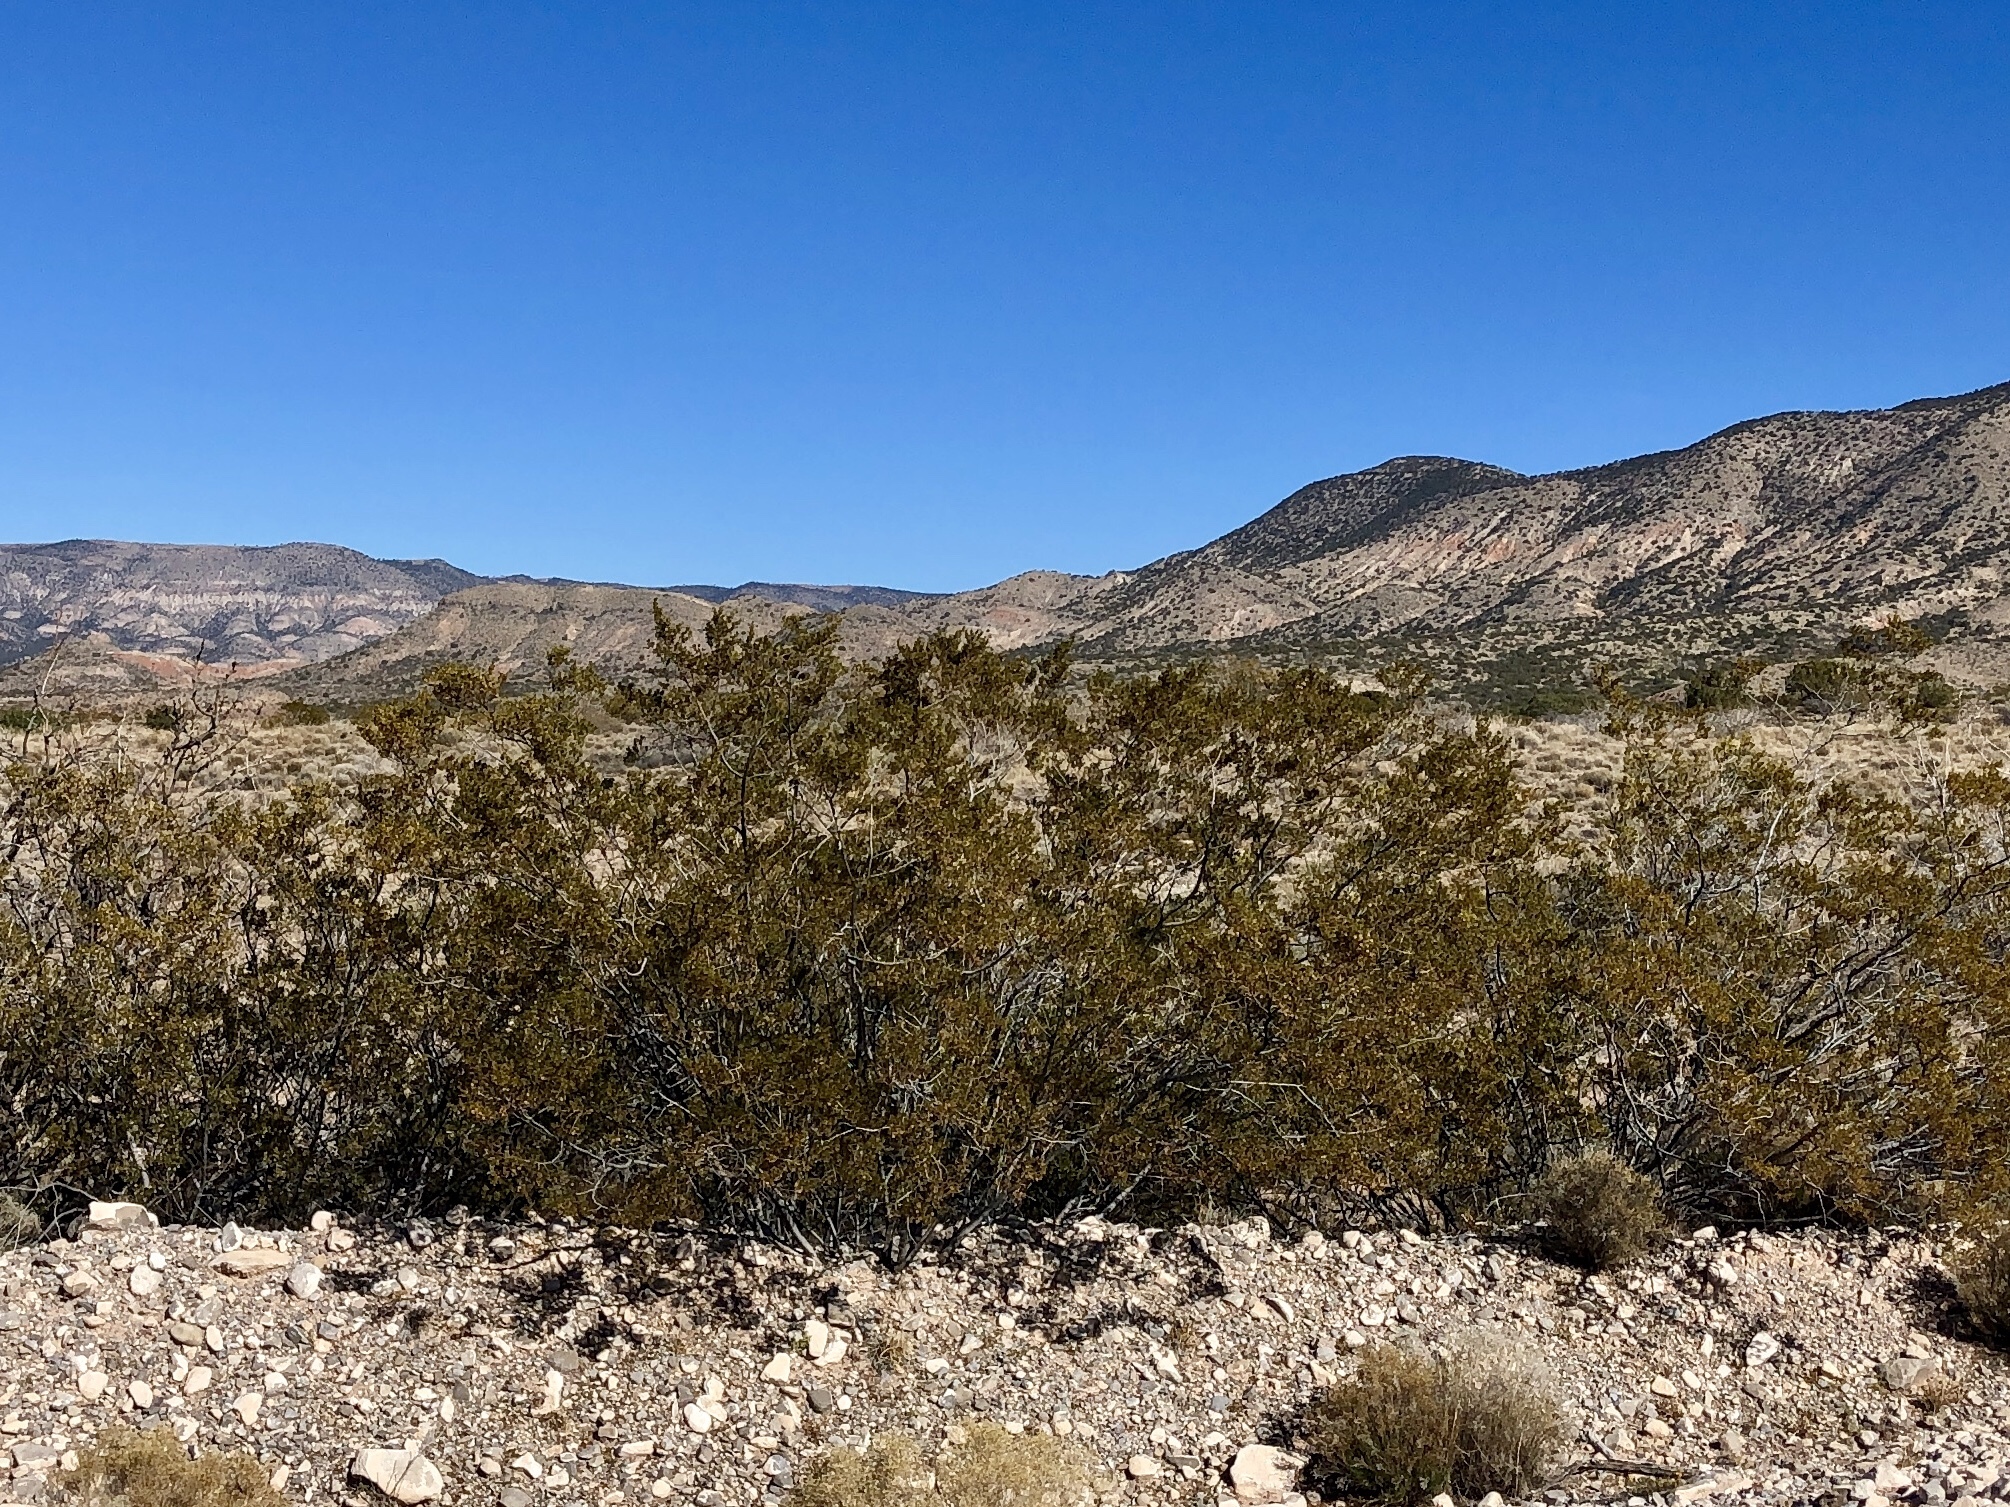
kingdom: Plantae
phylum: Tracheophyta
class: Magnoliopsida
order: Zygophyllales
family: Zygophyllaceae
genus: Larrea
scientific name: Larrea tridentata
